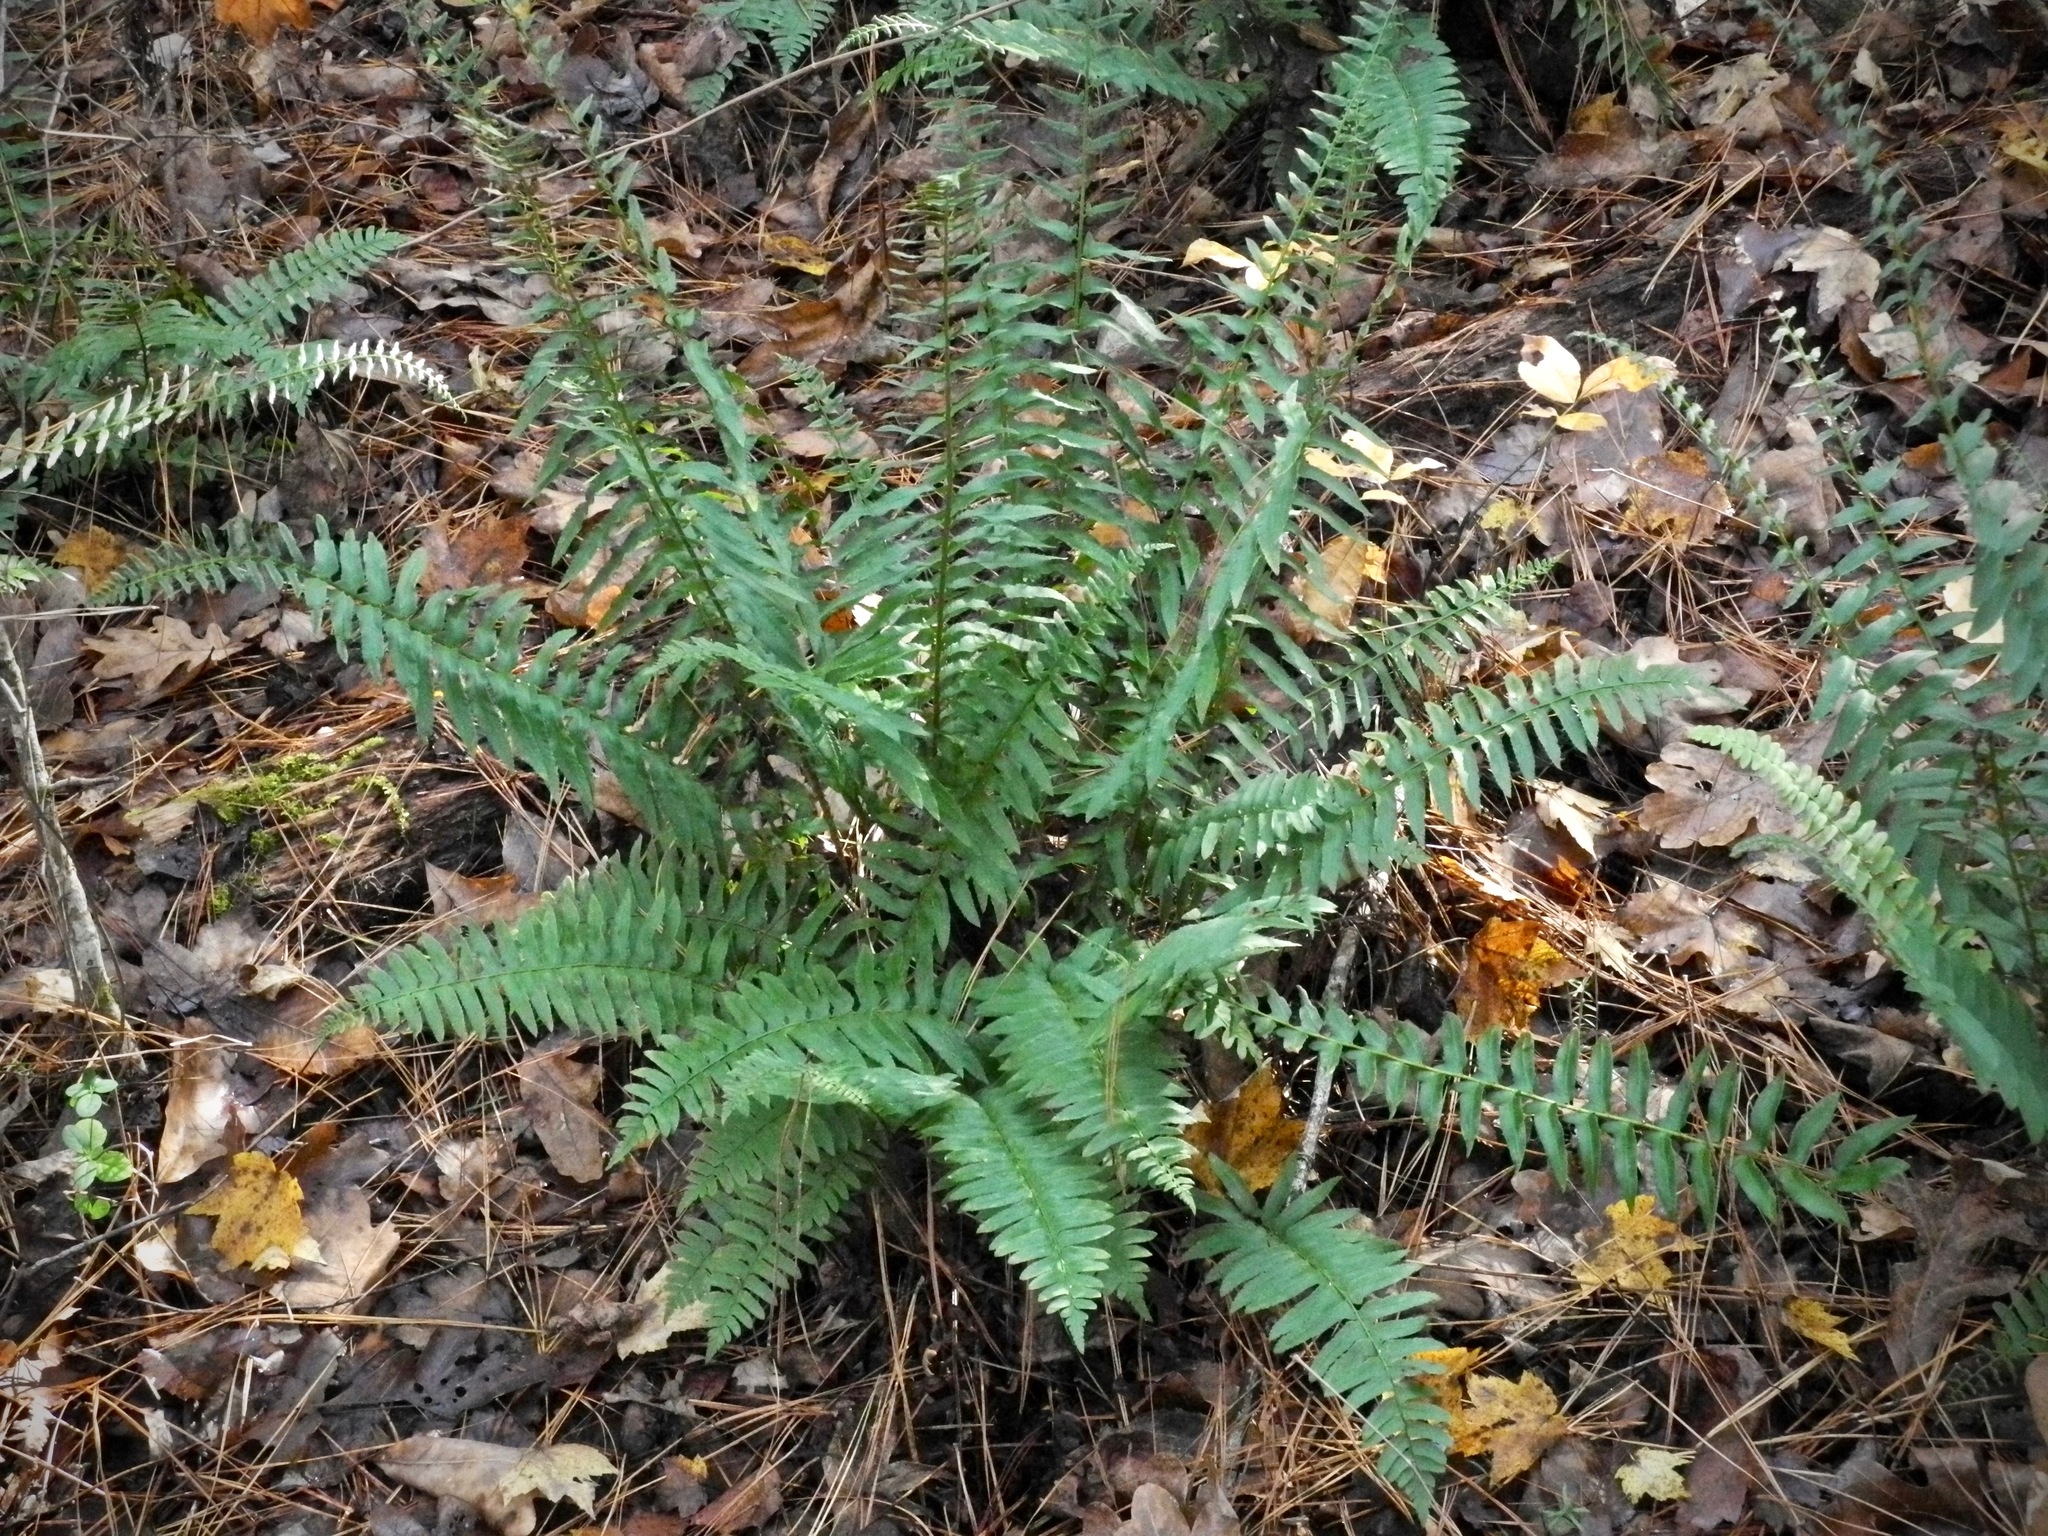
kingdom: Plantae
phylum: Tracheophyta
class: Polypodiopsida
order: Polypodiales
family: Dryopteridaceae
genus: Polystichum
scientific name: Polystichum acrostichoides
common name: Christmas fern
